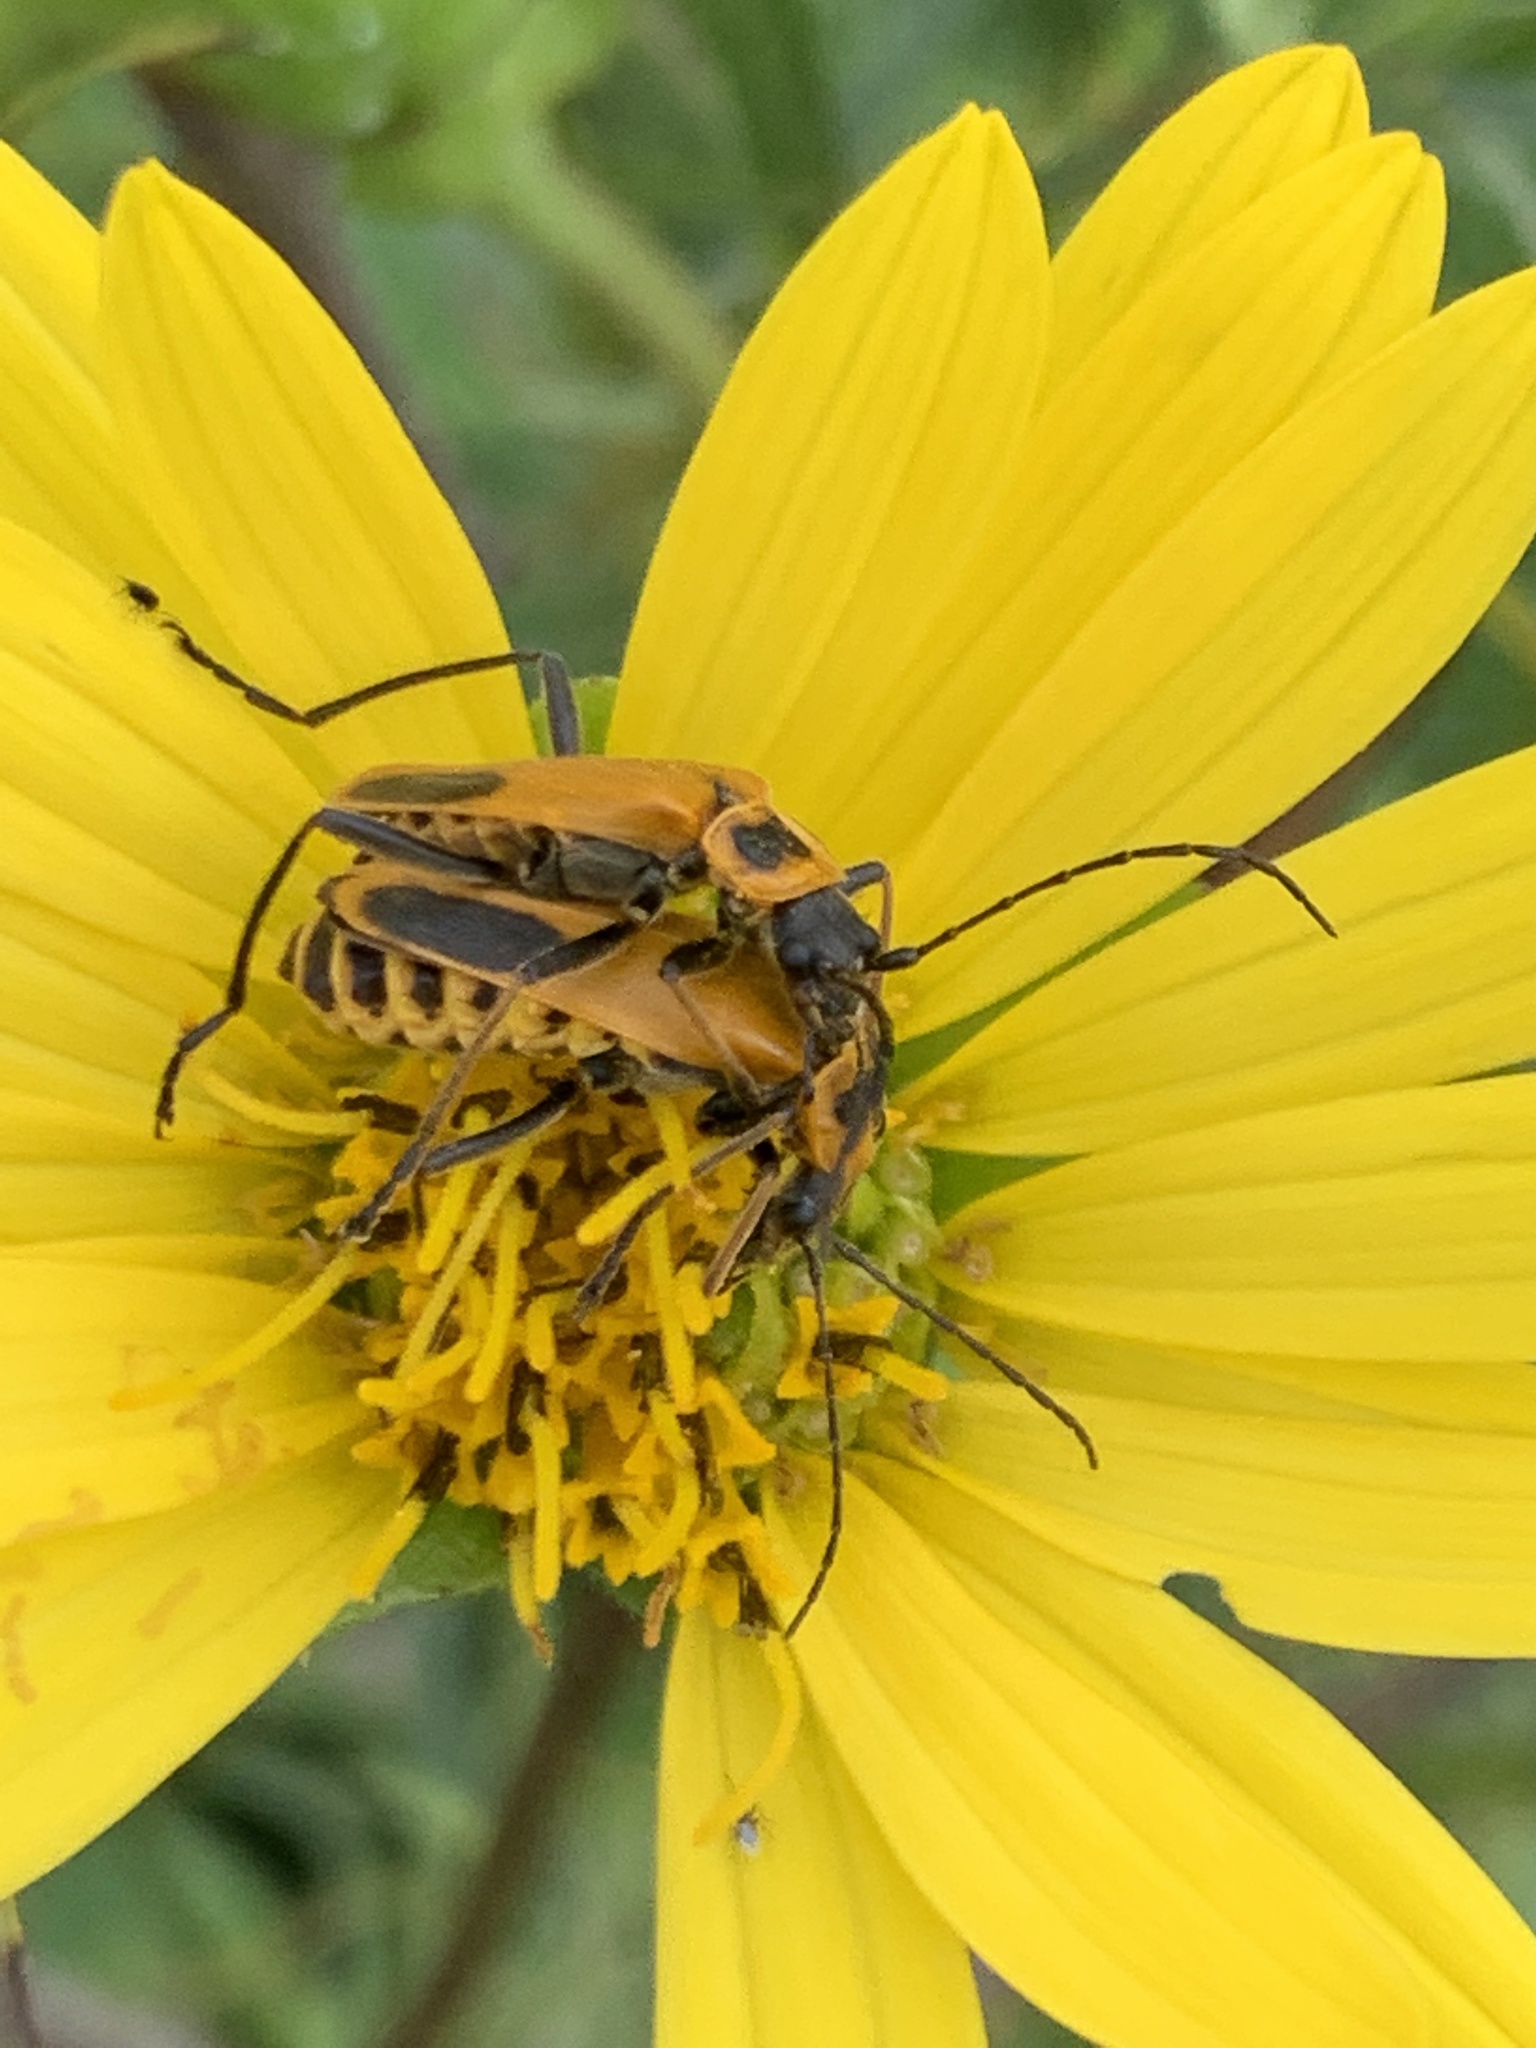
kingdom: Animalia
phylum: Arthropoda
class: Insecta
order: Coleoptera
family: Cantharidae
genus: Chauliognathus
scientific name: Chauliognathus pensylvanicus
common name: Goldenrod soldier beetle
